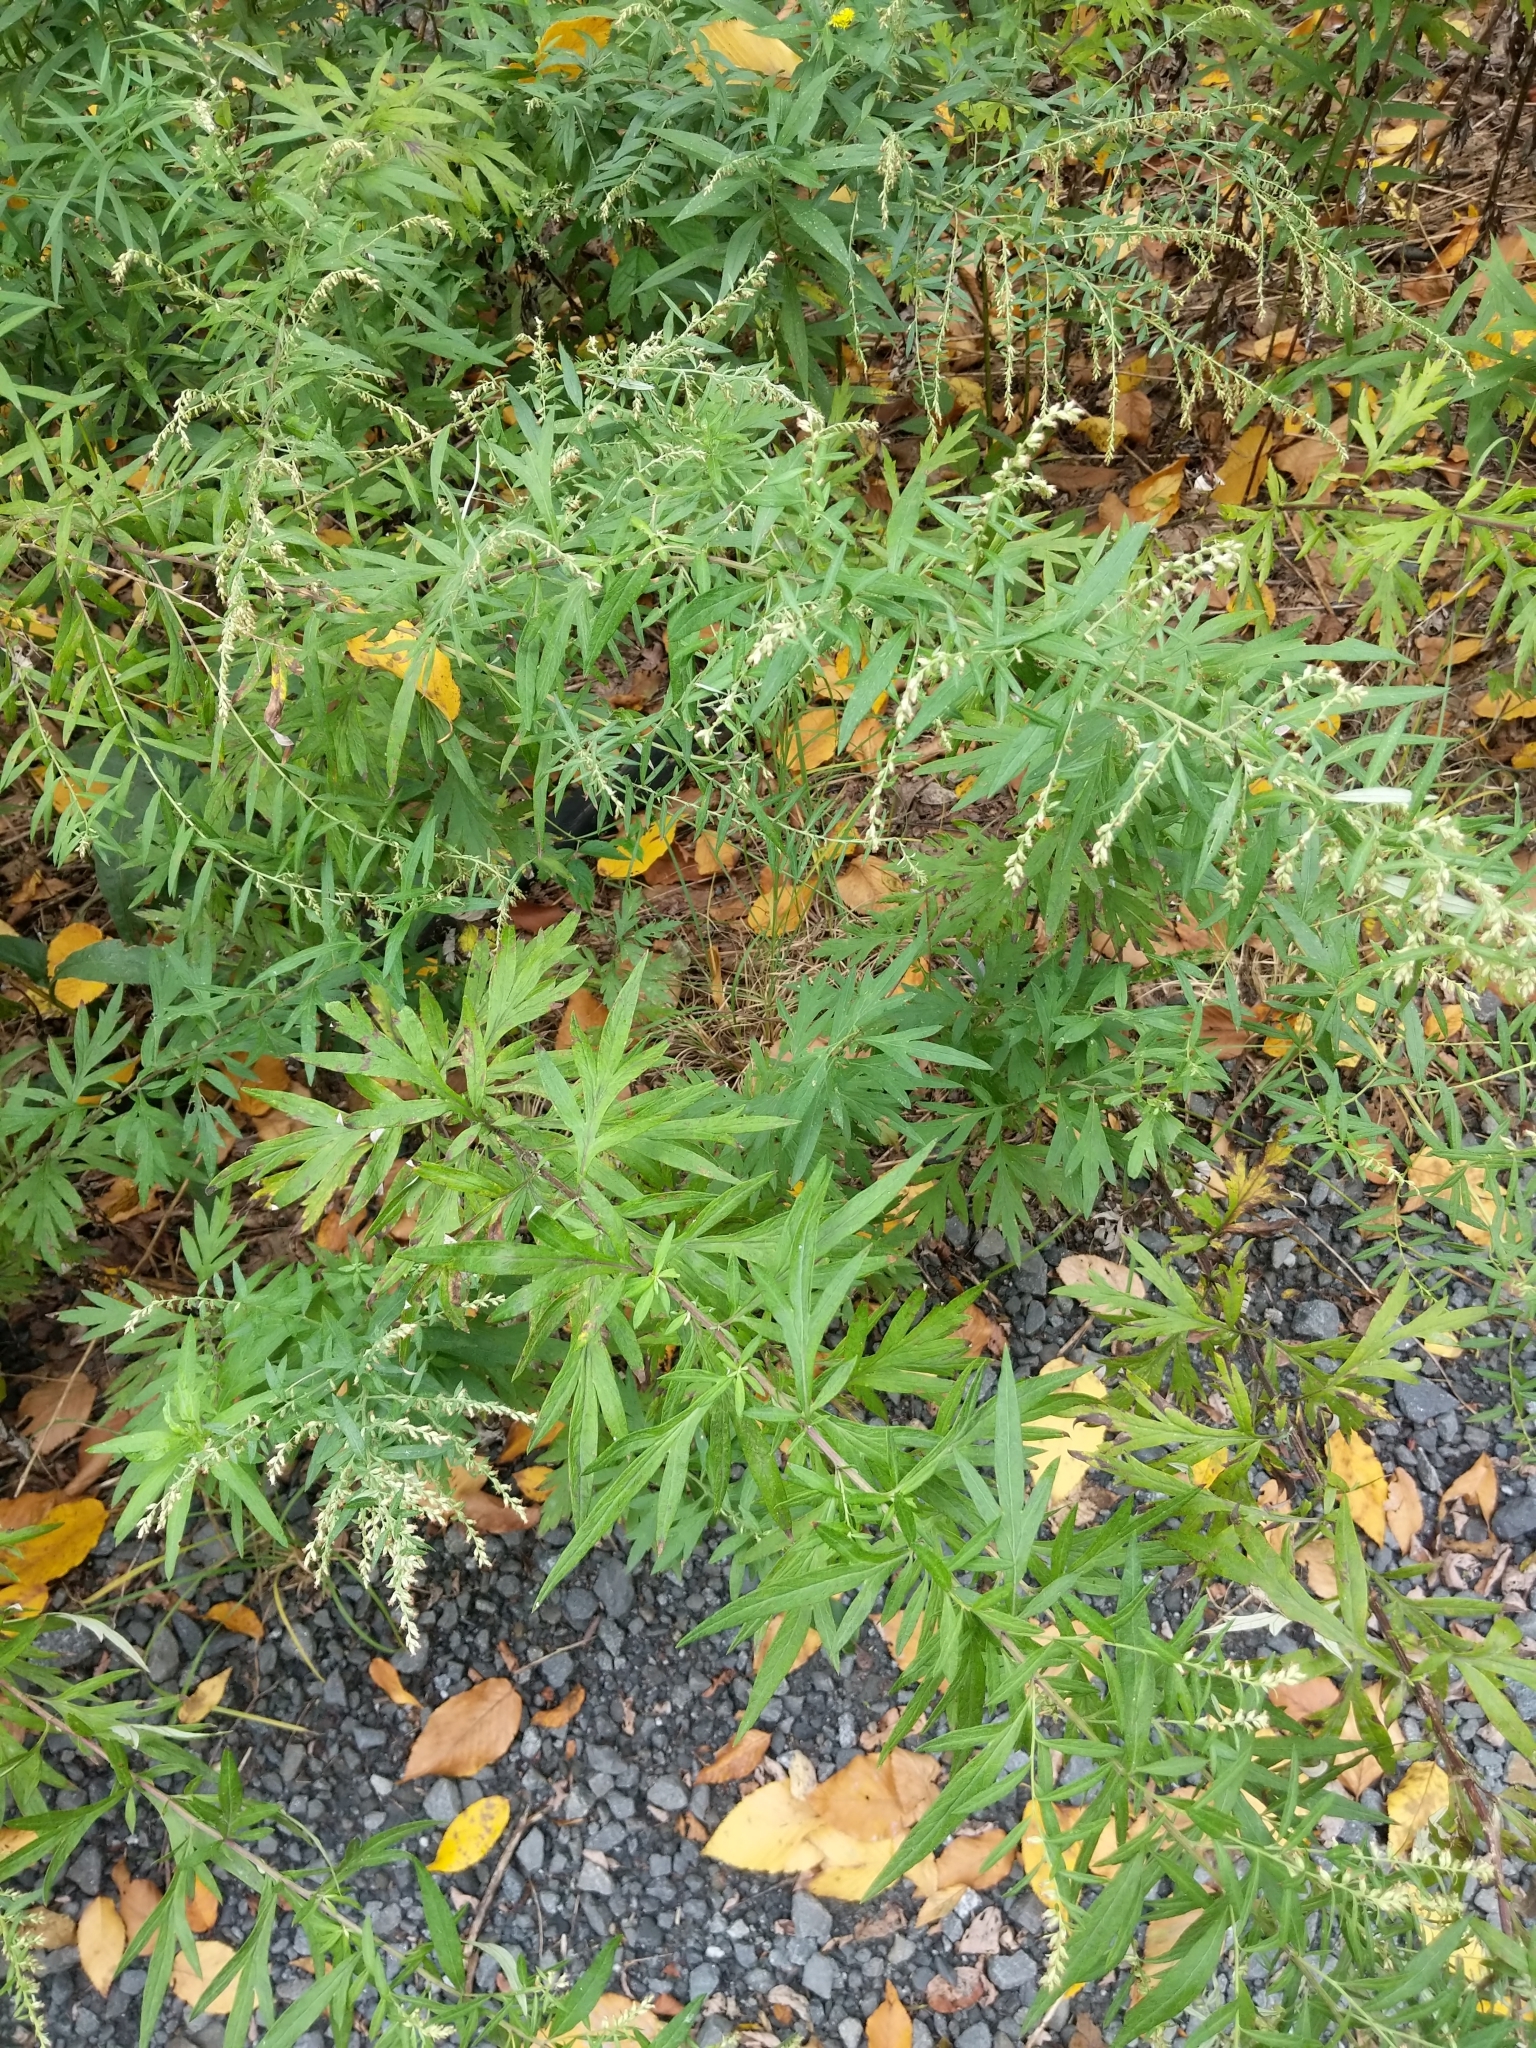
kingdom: Plantae
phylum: Tracheophyta
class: Magnoliopsida
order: Asterales
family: Asteraceae
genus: Artemisia
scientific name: Artemisia vulgaris
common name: Mugwort
